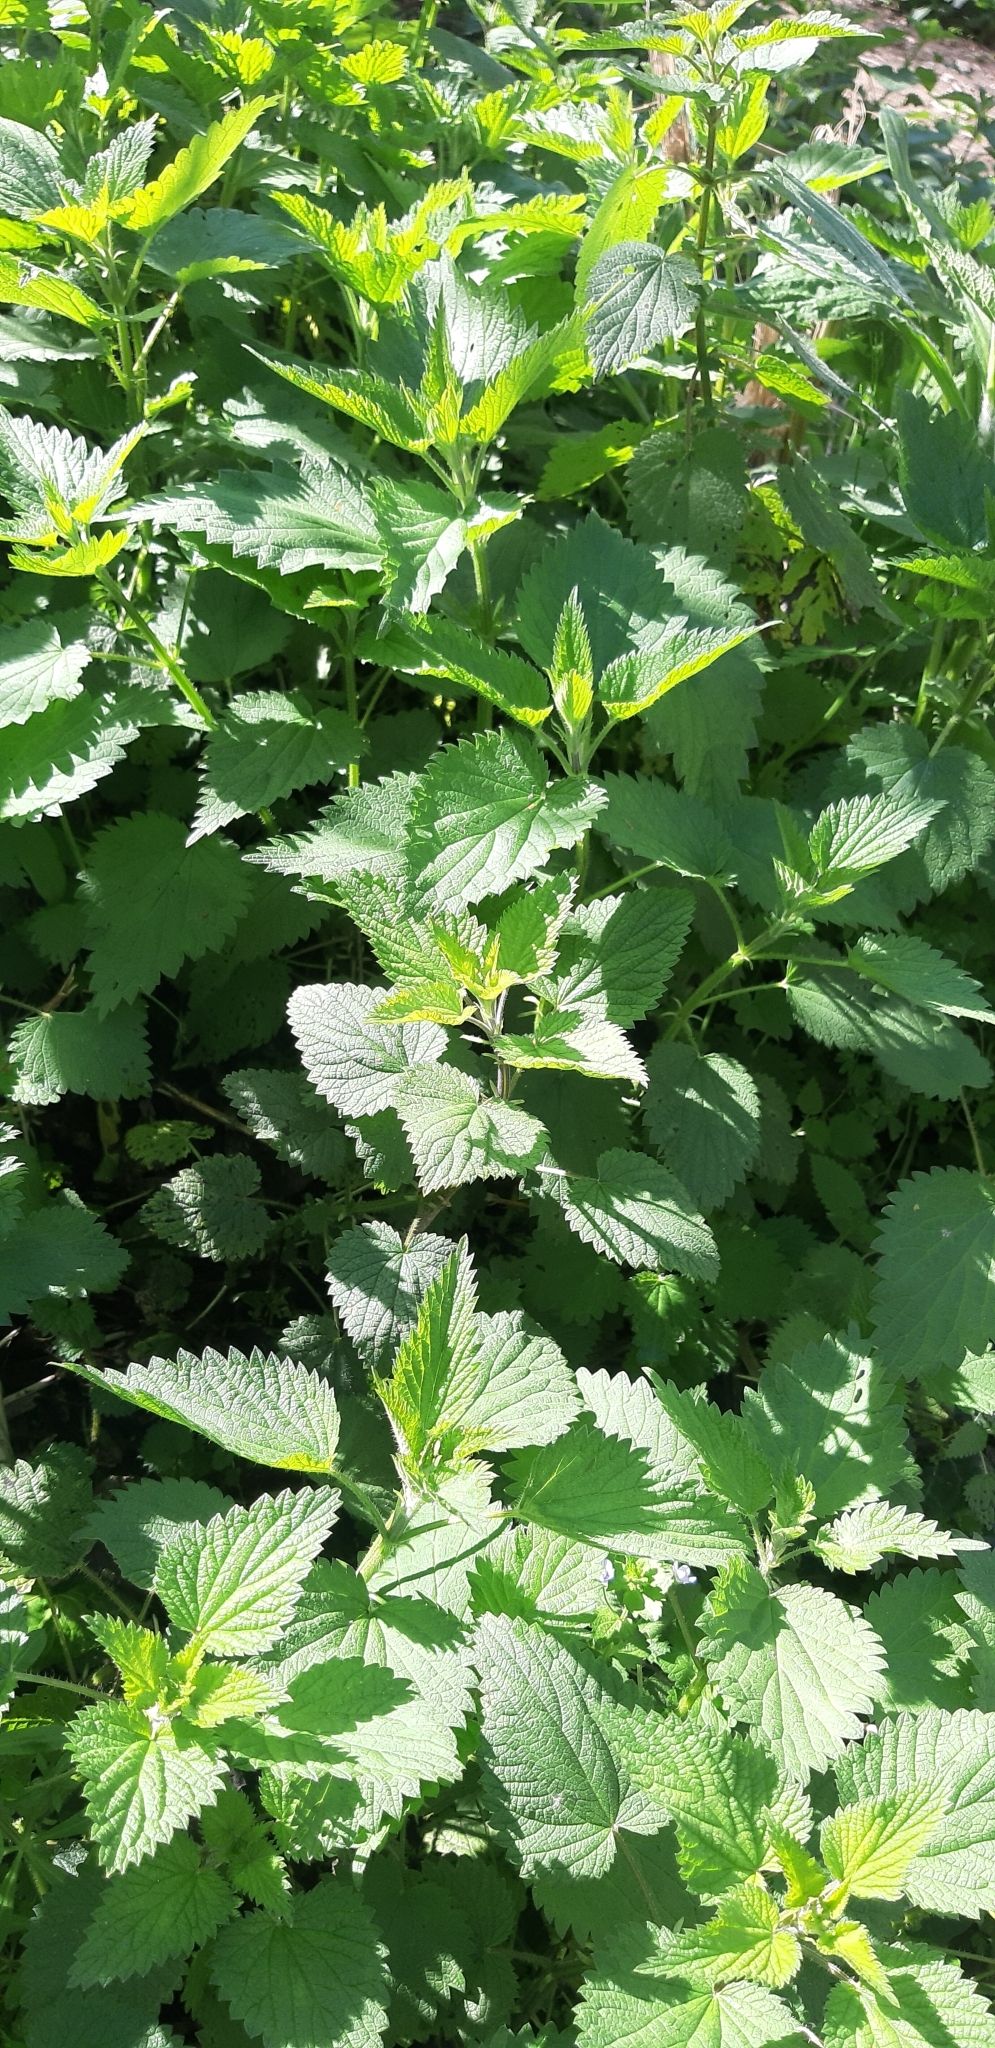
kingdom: Plantae
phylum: Tracheophyta
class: Magnoliopsida
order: Rosales
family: Urticaceae
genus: Urtica
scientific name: Urtica dioica
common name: Common nettle
